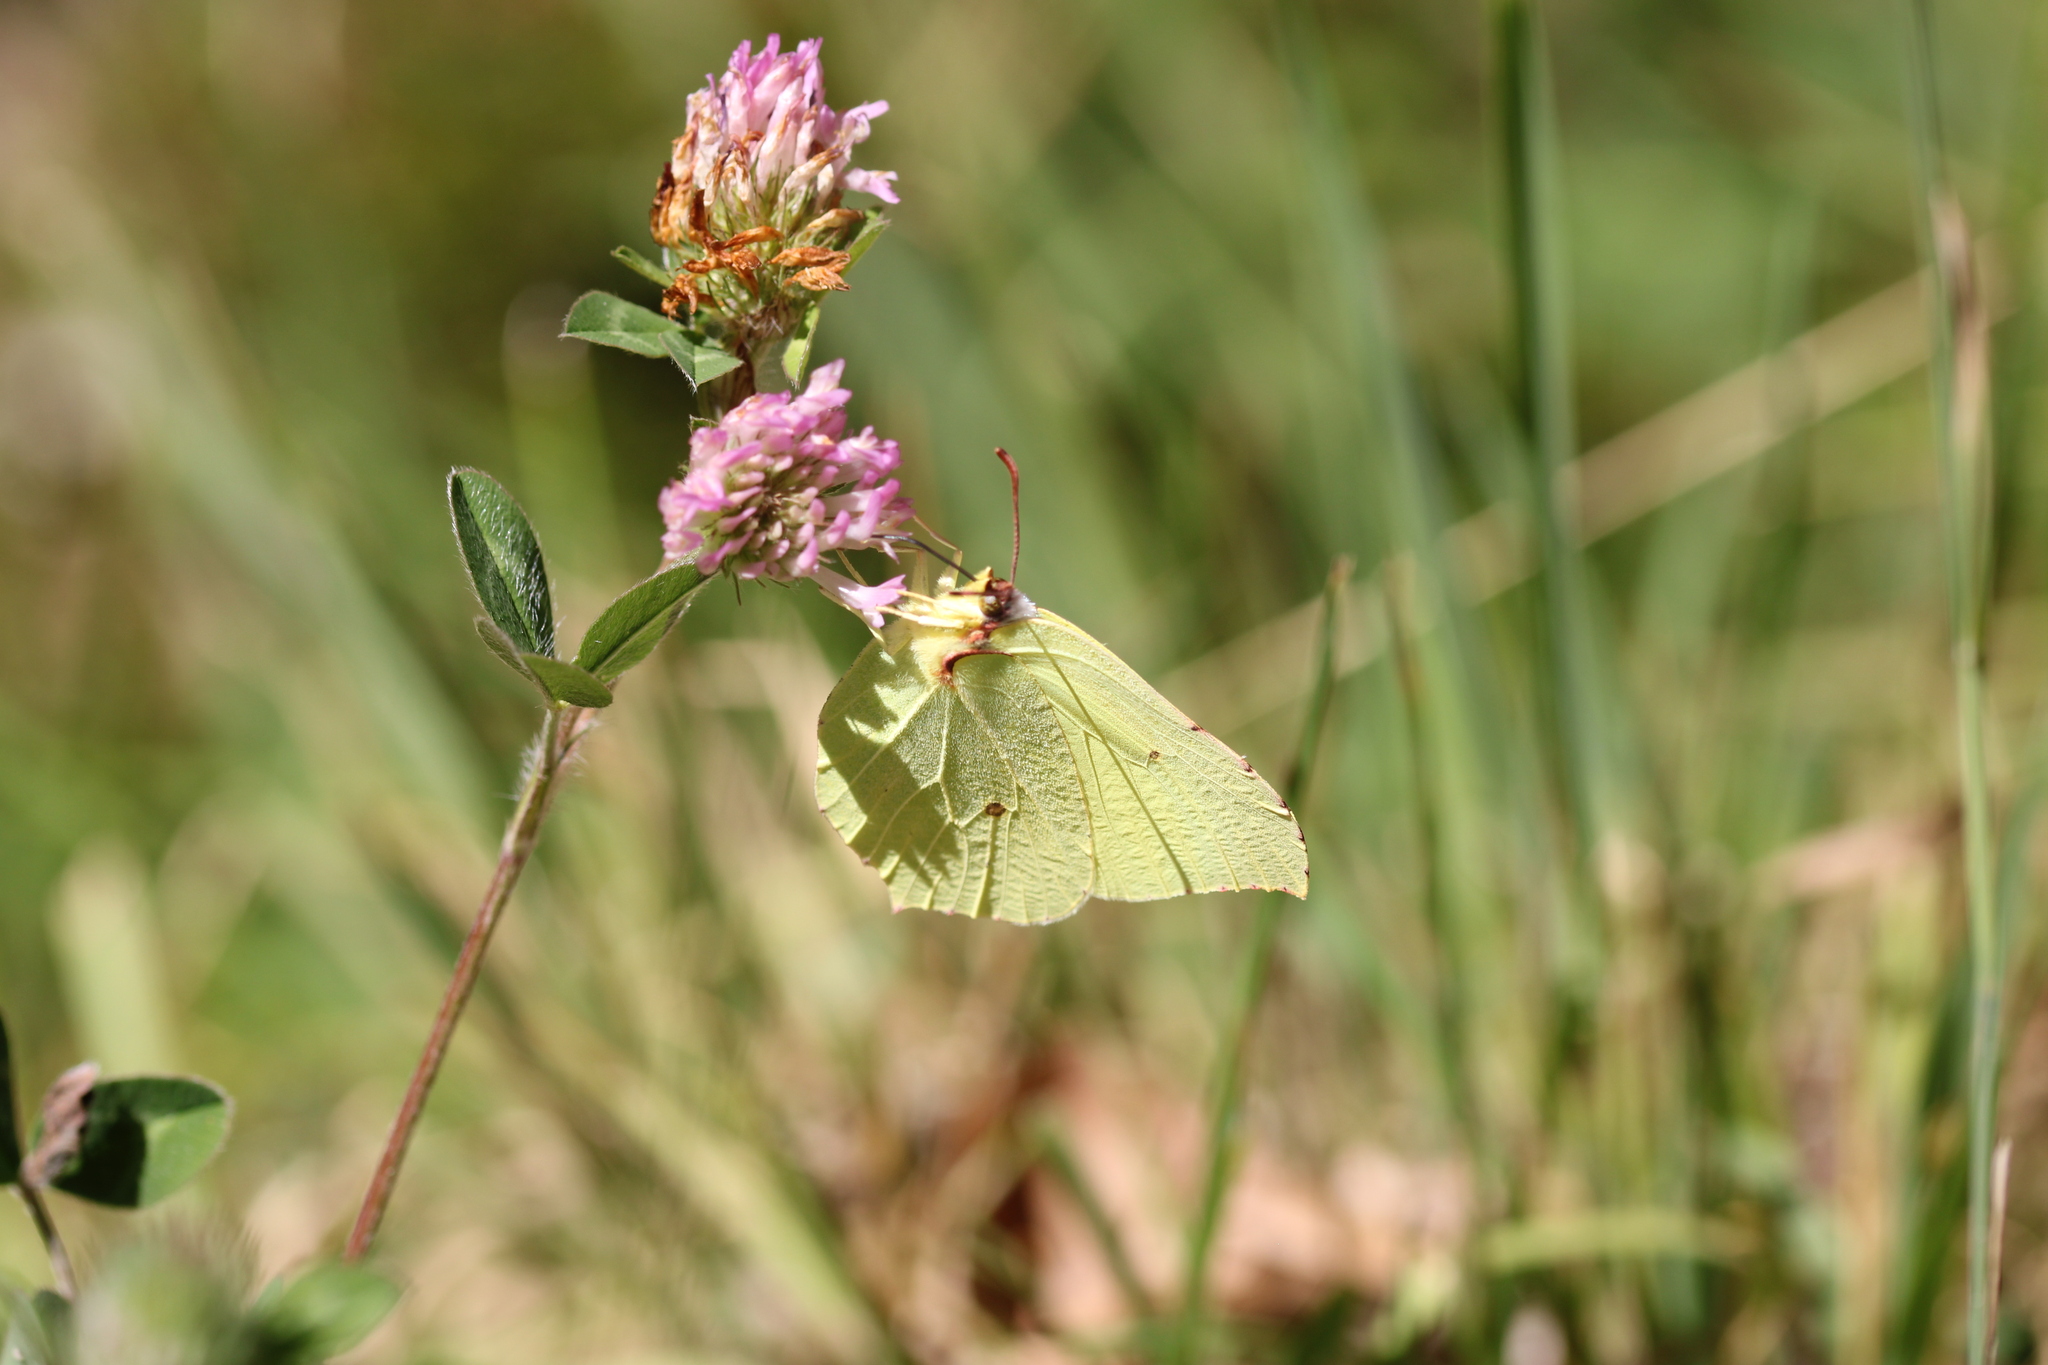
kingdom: Animalia
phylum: Arthropoda
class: Insecta
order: Lepidoptera
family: Pieridae
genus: Gonepteryx
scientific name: Gonepteryx rhamni
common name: Brimstone
